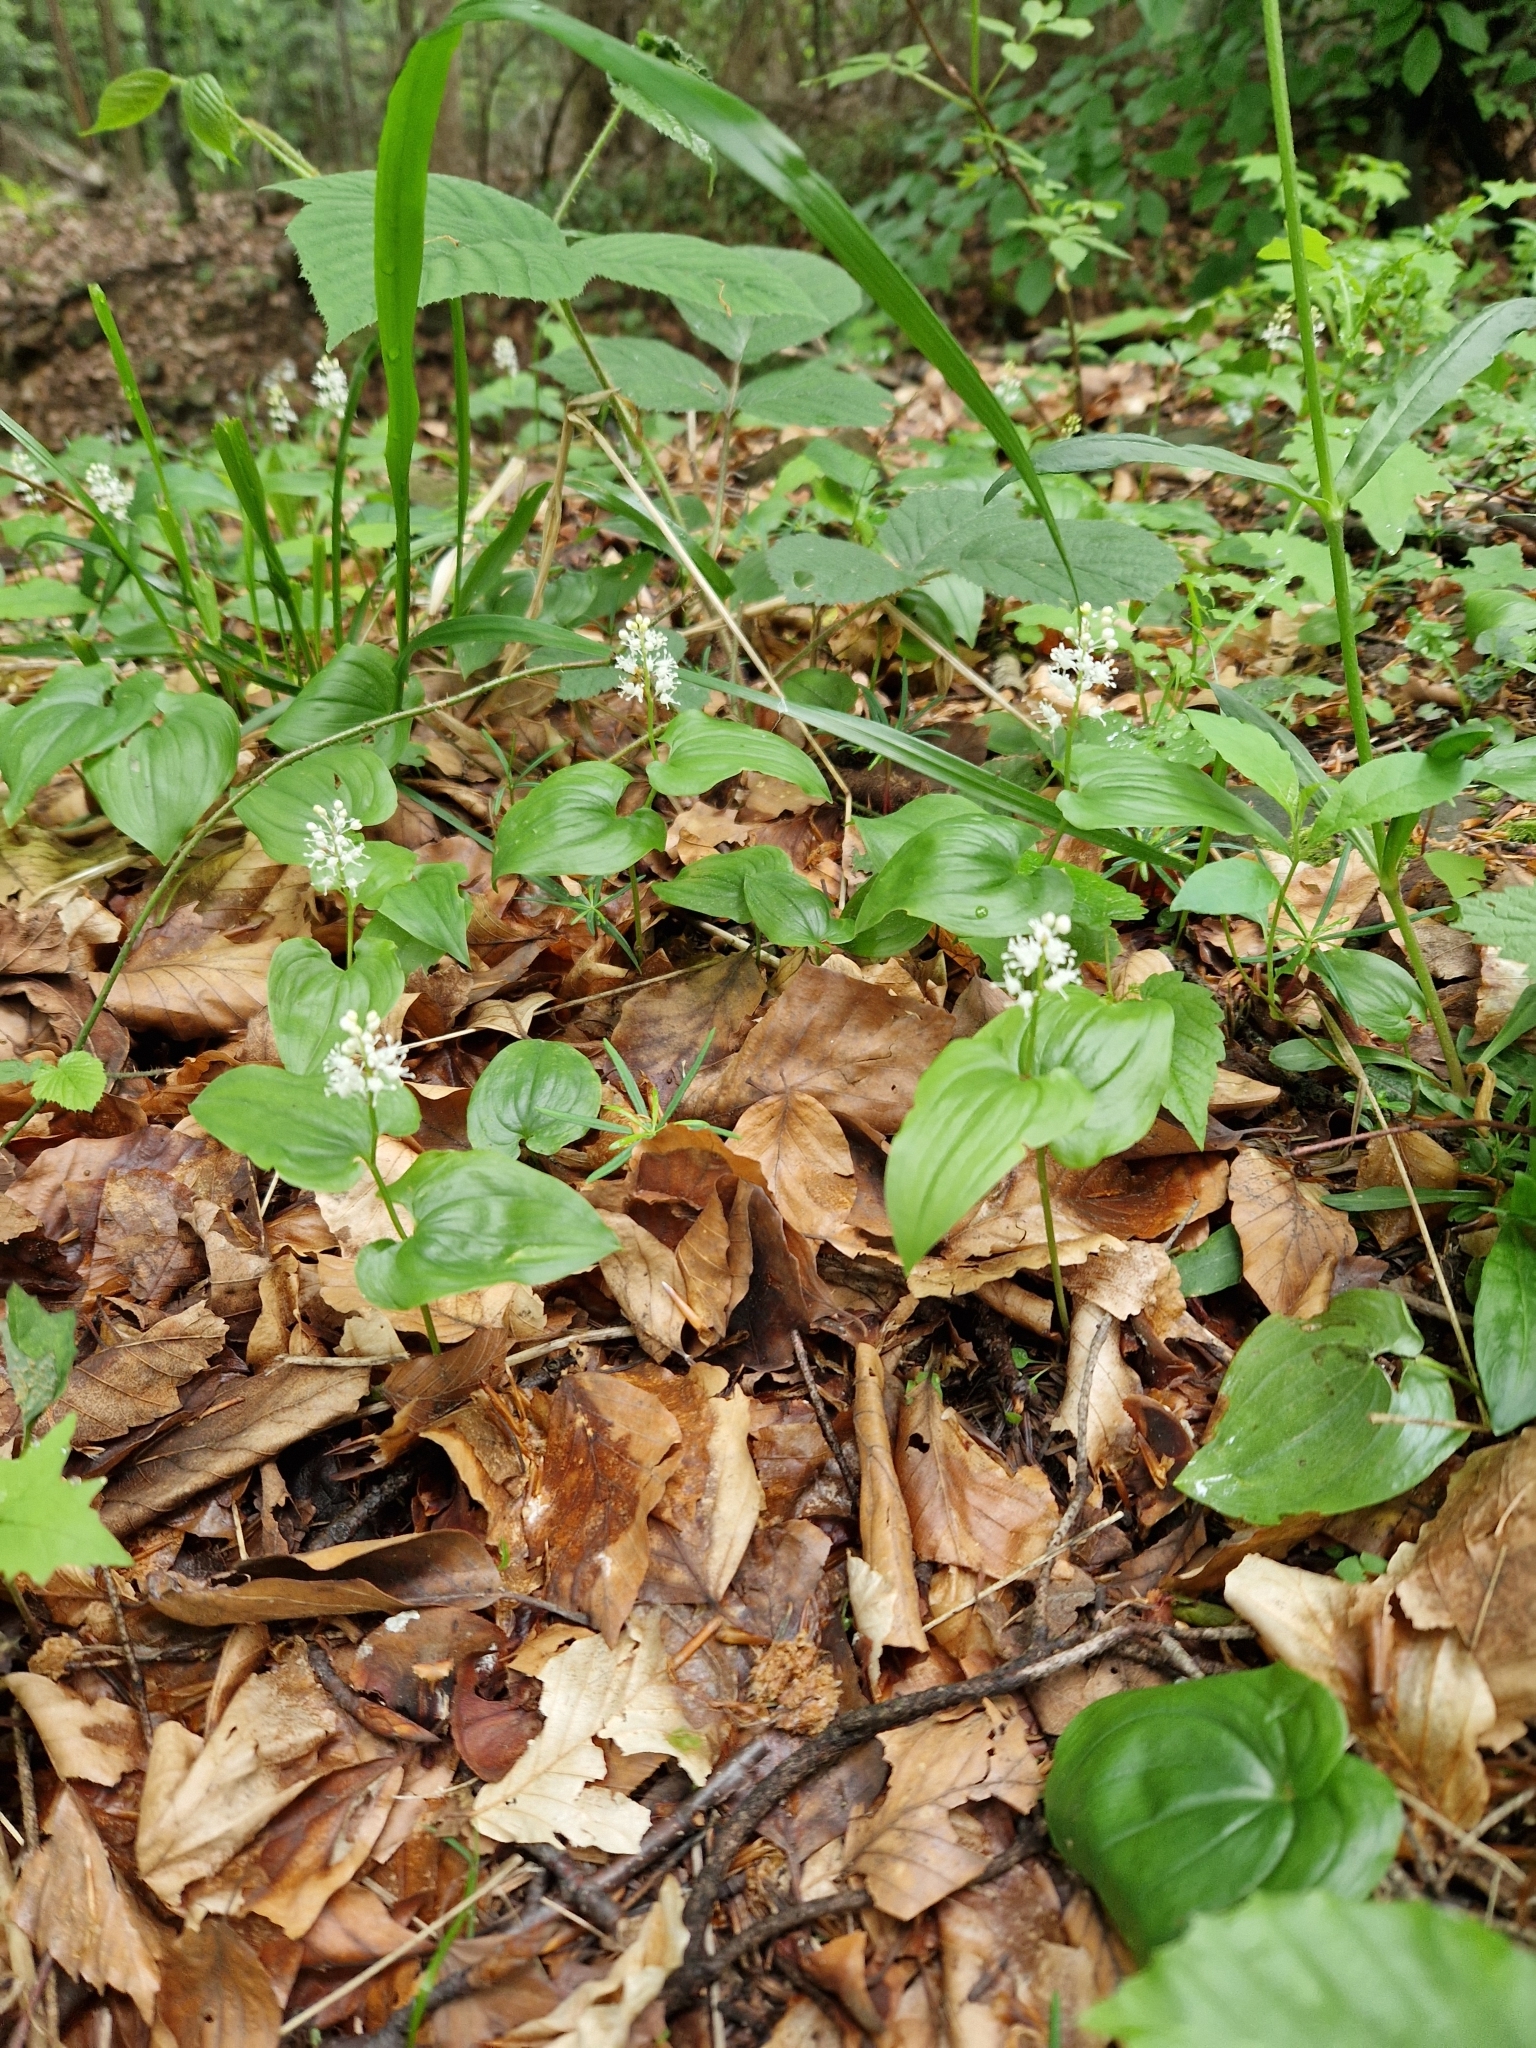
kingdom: Plantae
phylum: Tracheophyta
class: Liliopsida
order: Asparagales
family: Asparagaceae
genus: Maianthemum
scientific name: Maianthemum bifolium
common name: May lily
